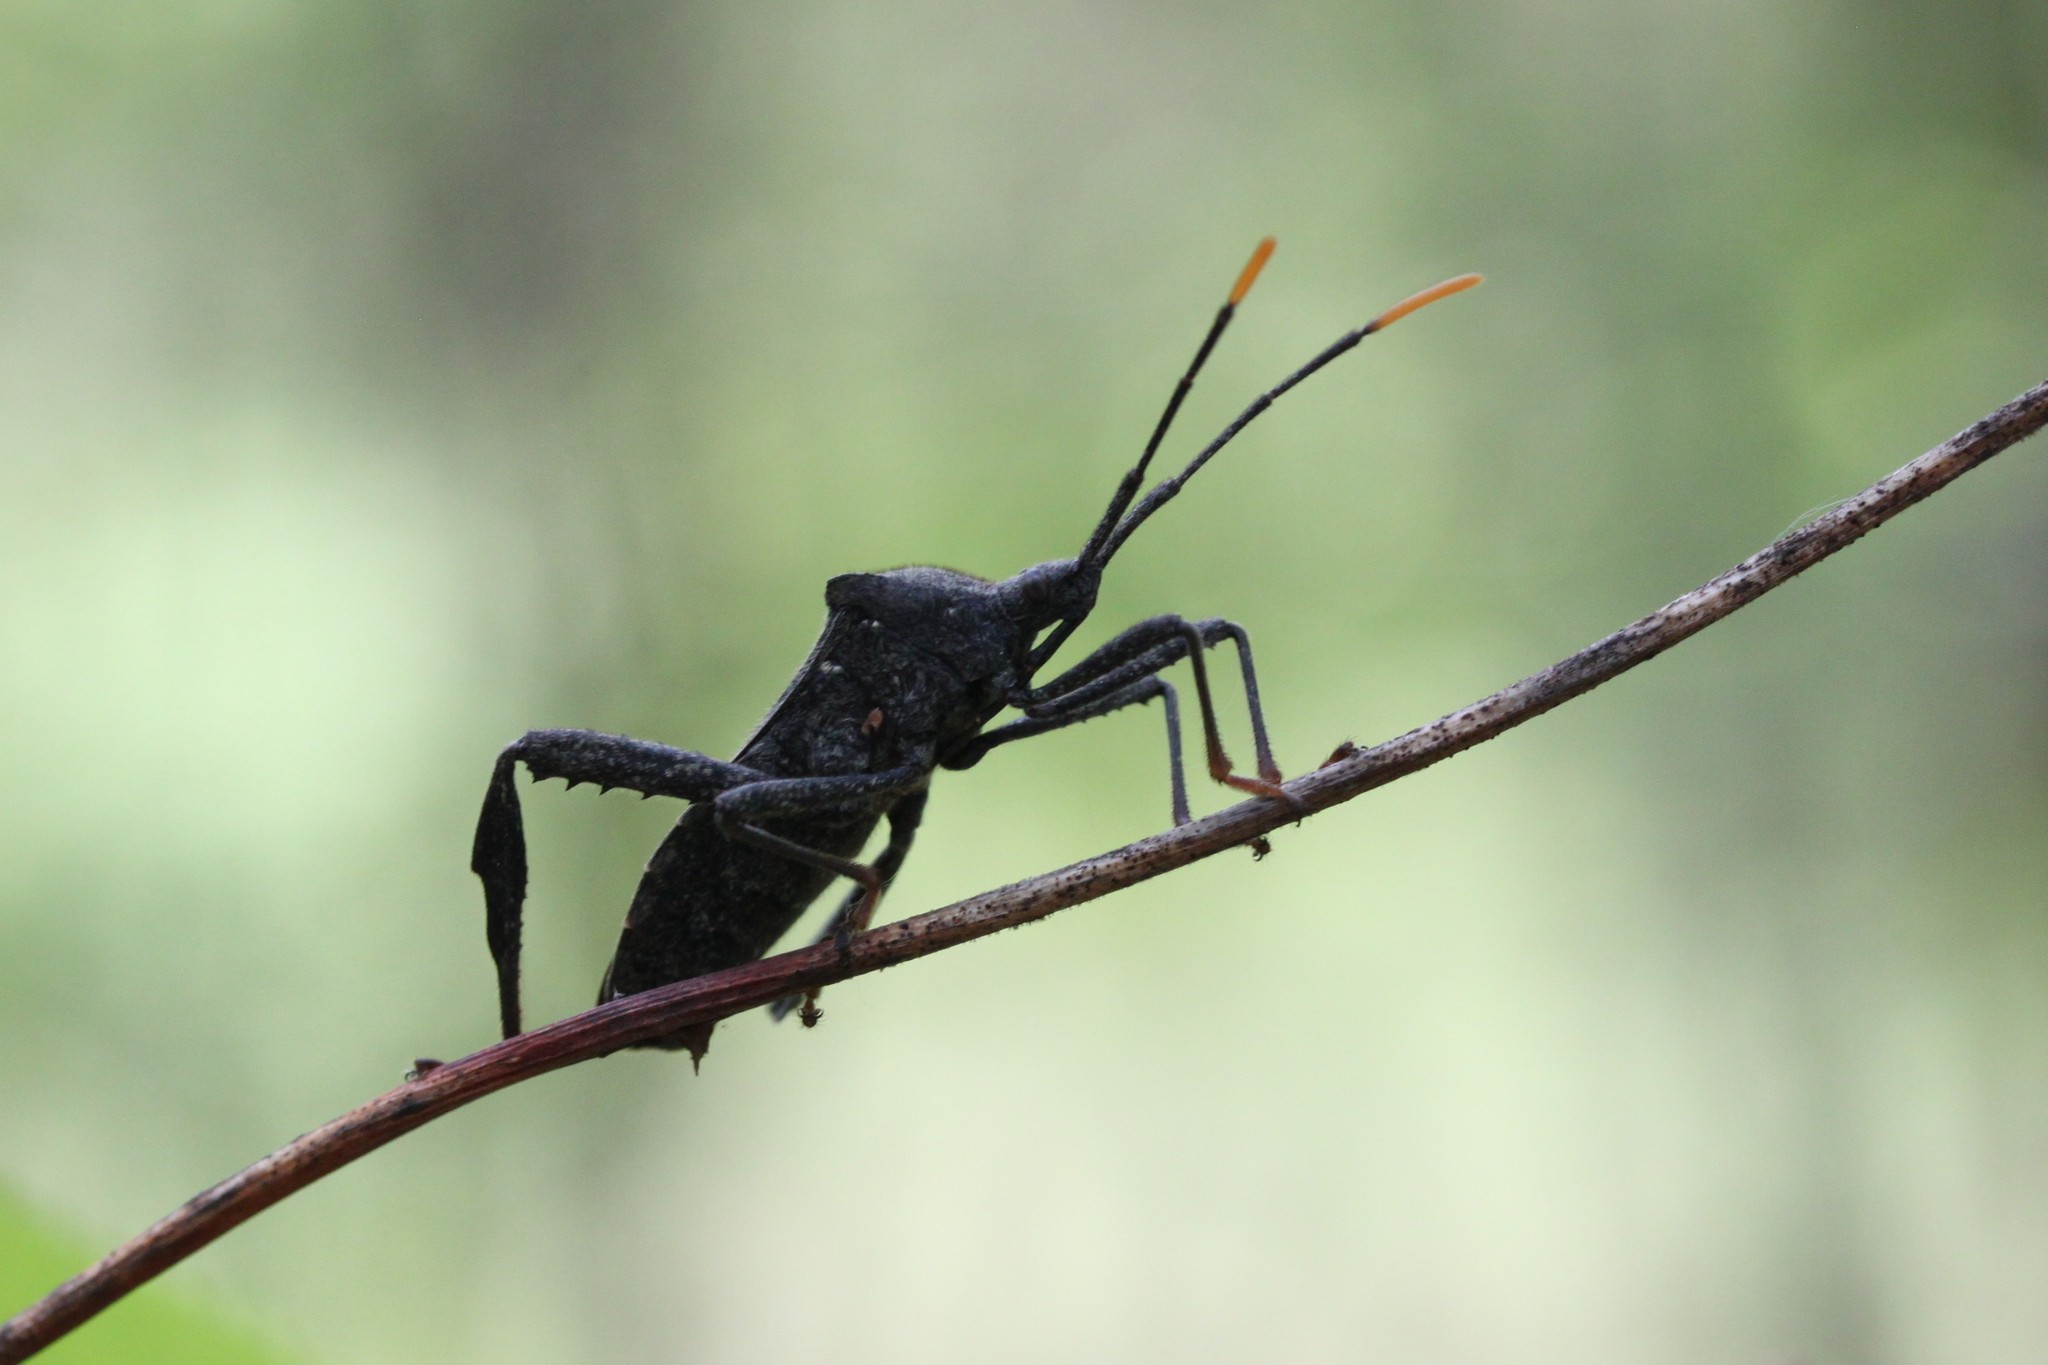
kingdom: Animalia
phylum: Arthropoda
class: Insecta
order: Hemiptera
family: Coreidae
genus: Acanthocephala
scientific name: Acanthocephala terminalis
